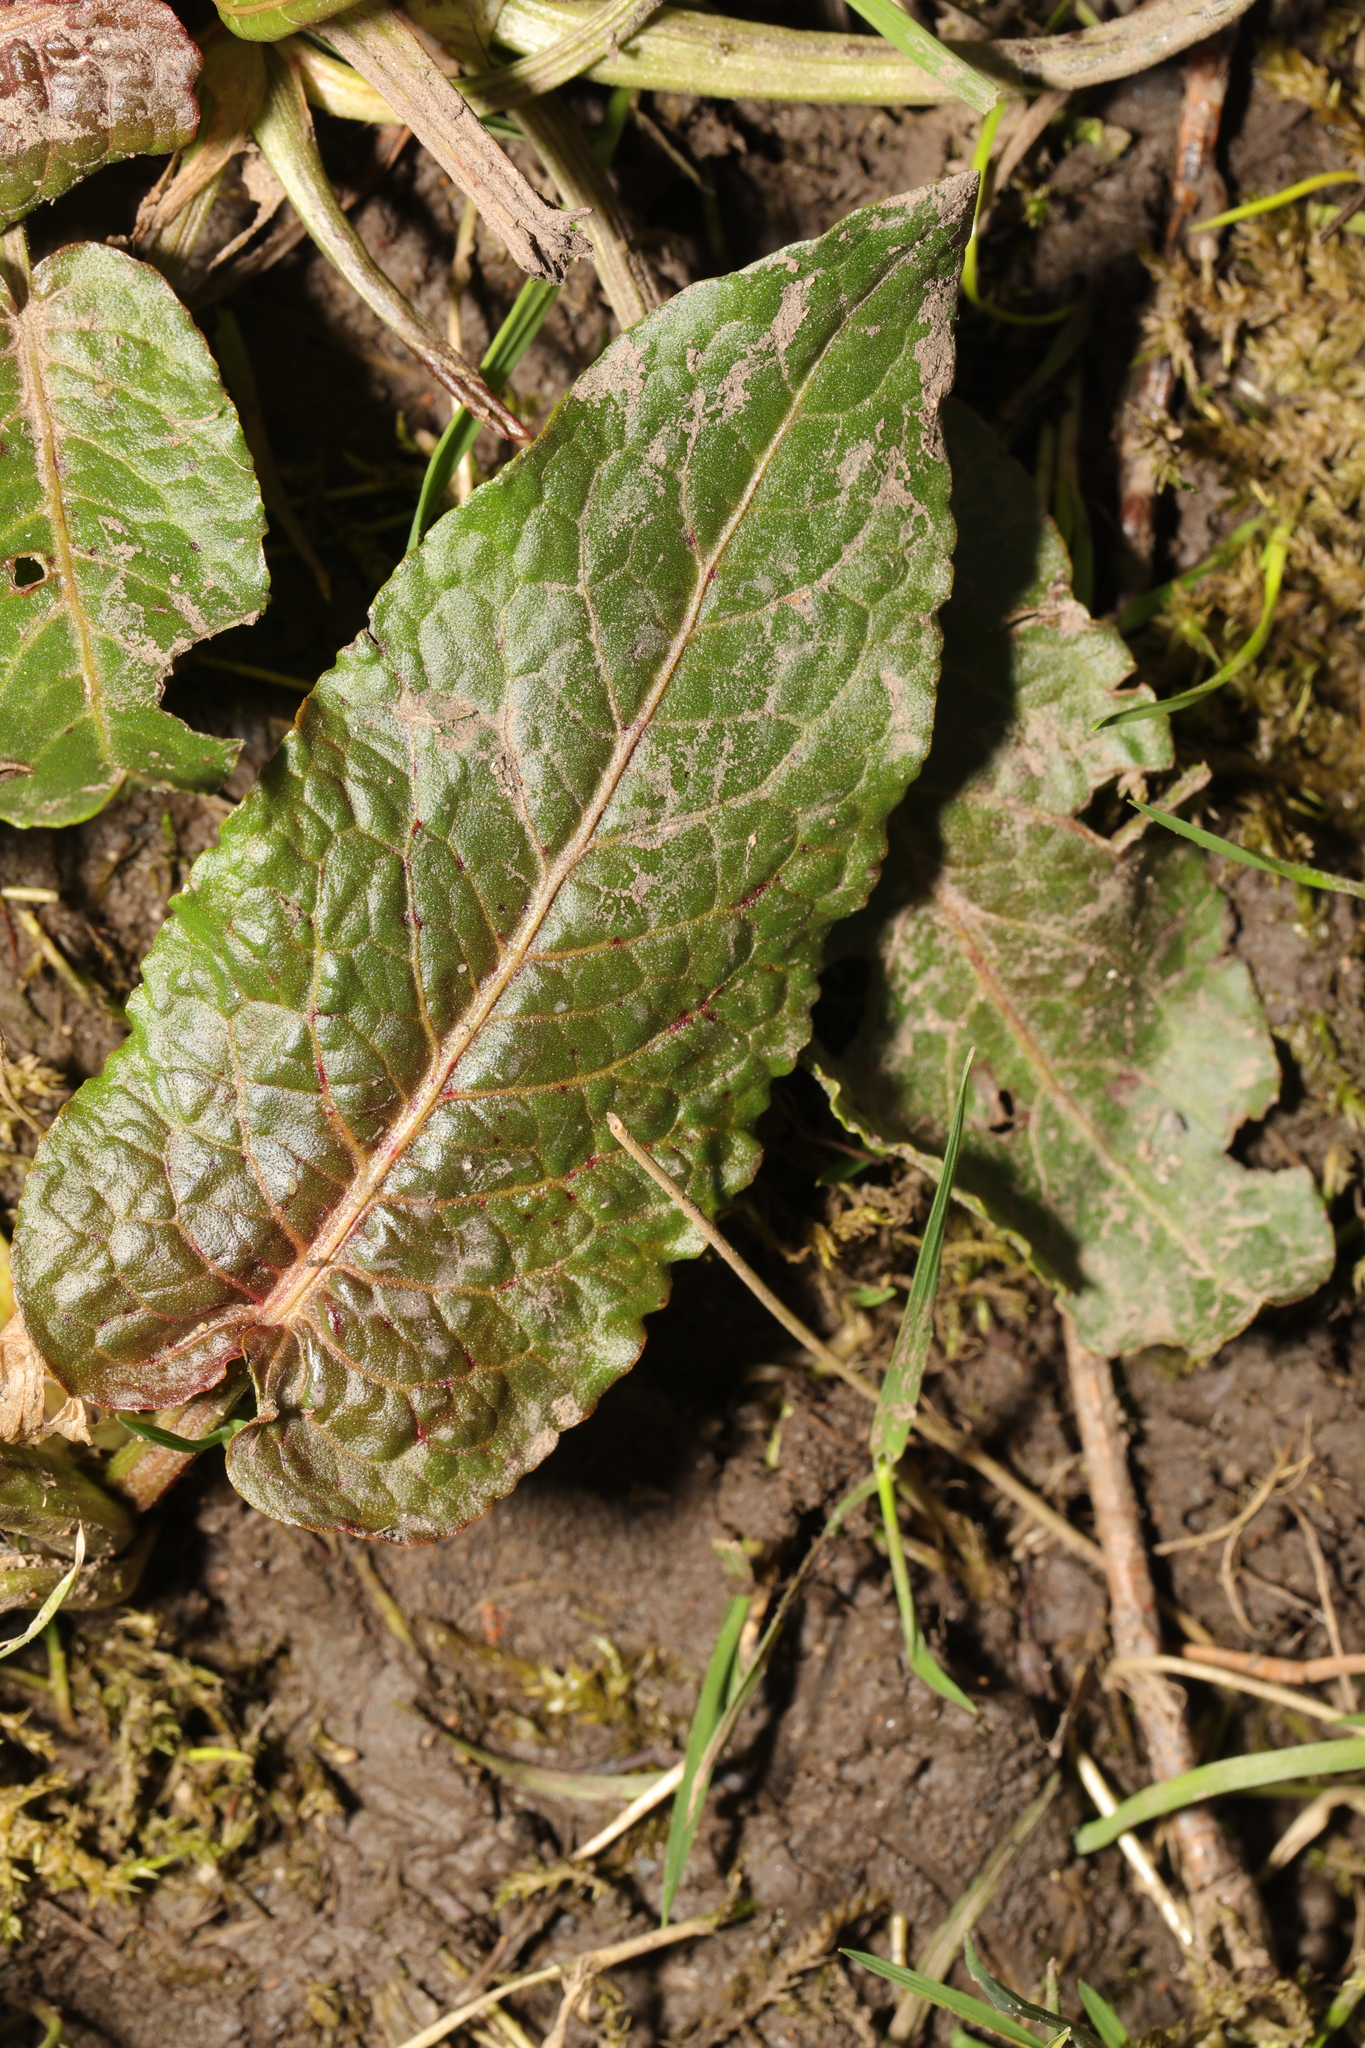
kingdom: Plantae
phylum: Tracheophyta
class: Magnoliopsida
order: Caryophyllales
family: Polygonaceae
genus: Rumex
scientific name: Rumex obtusifolius
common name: Bitter dock
